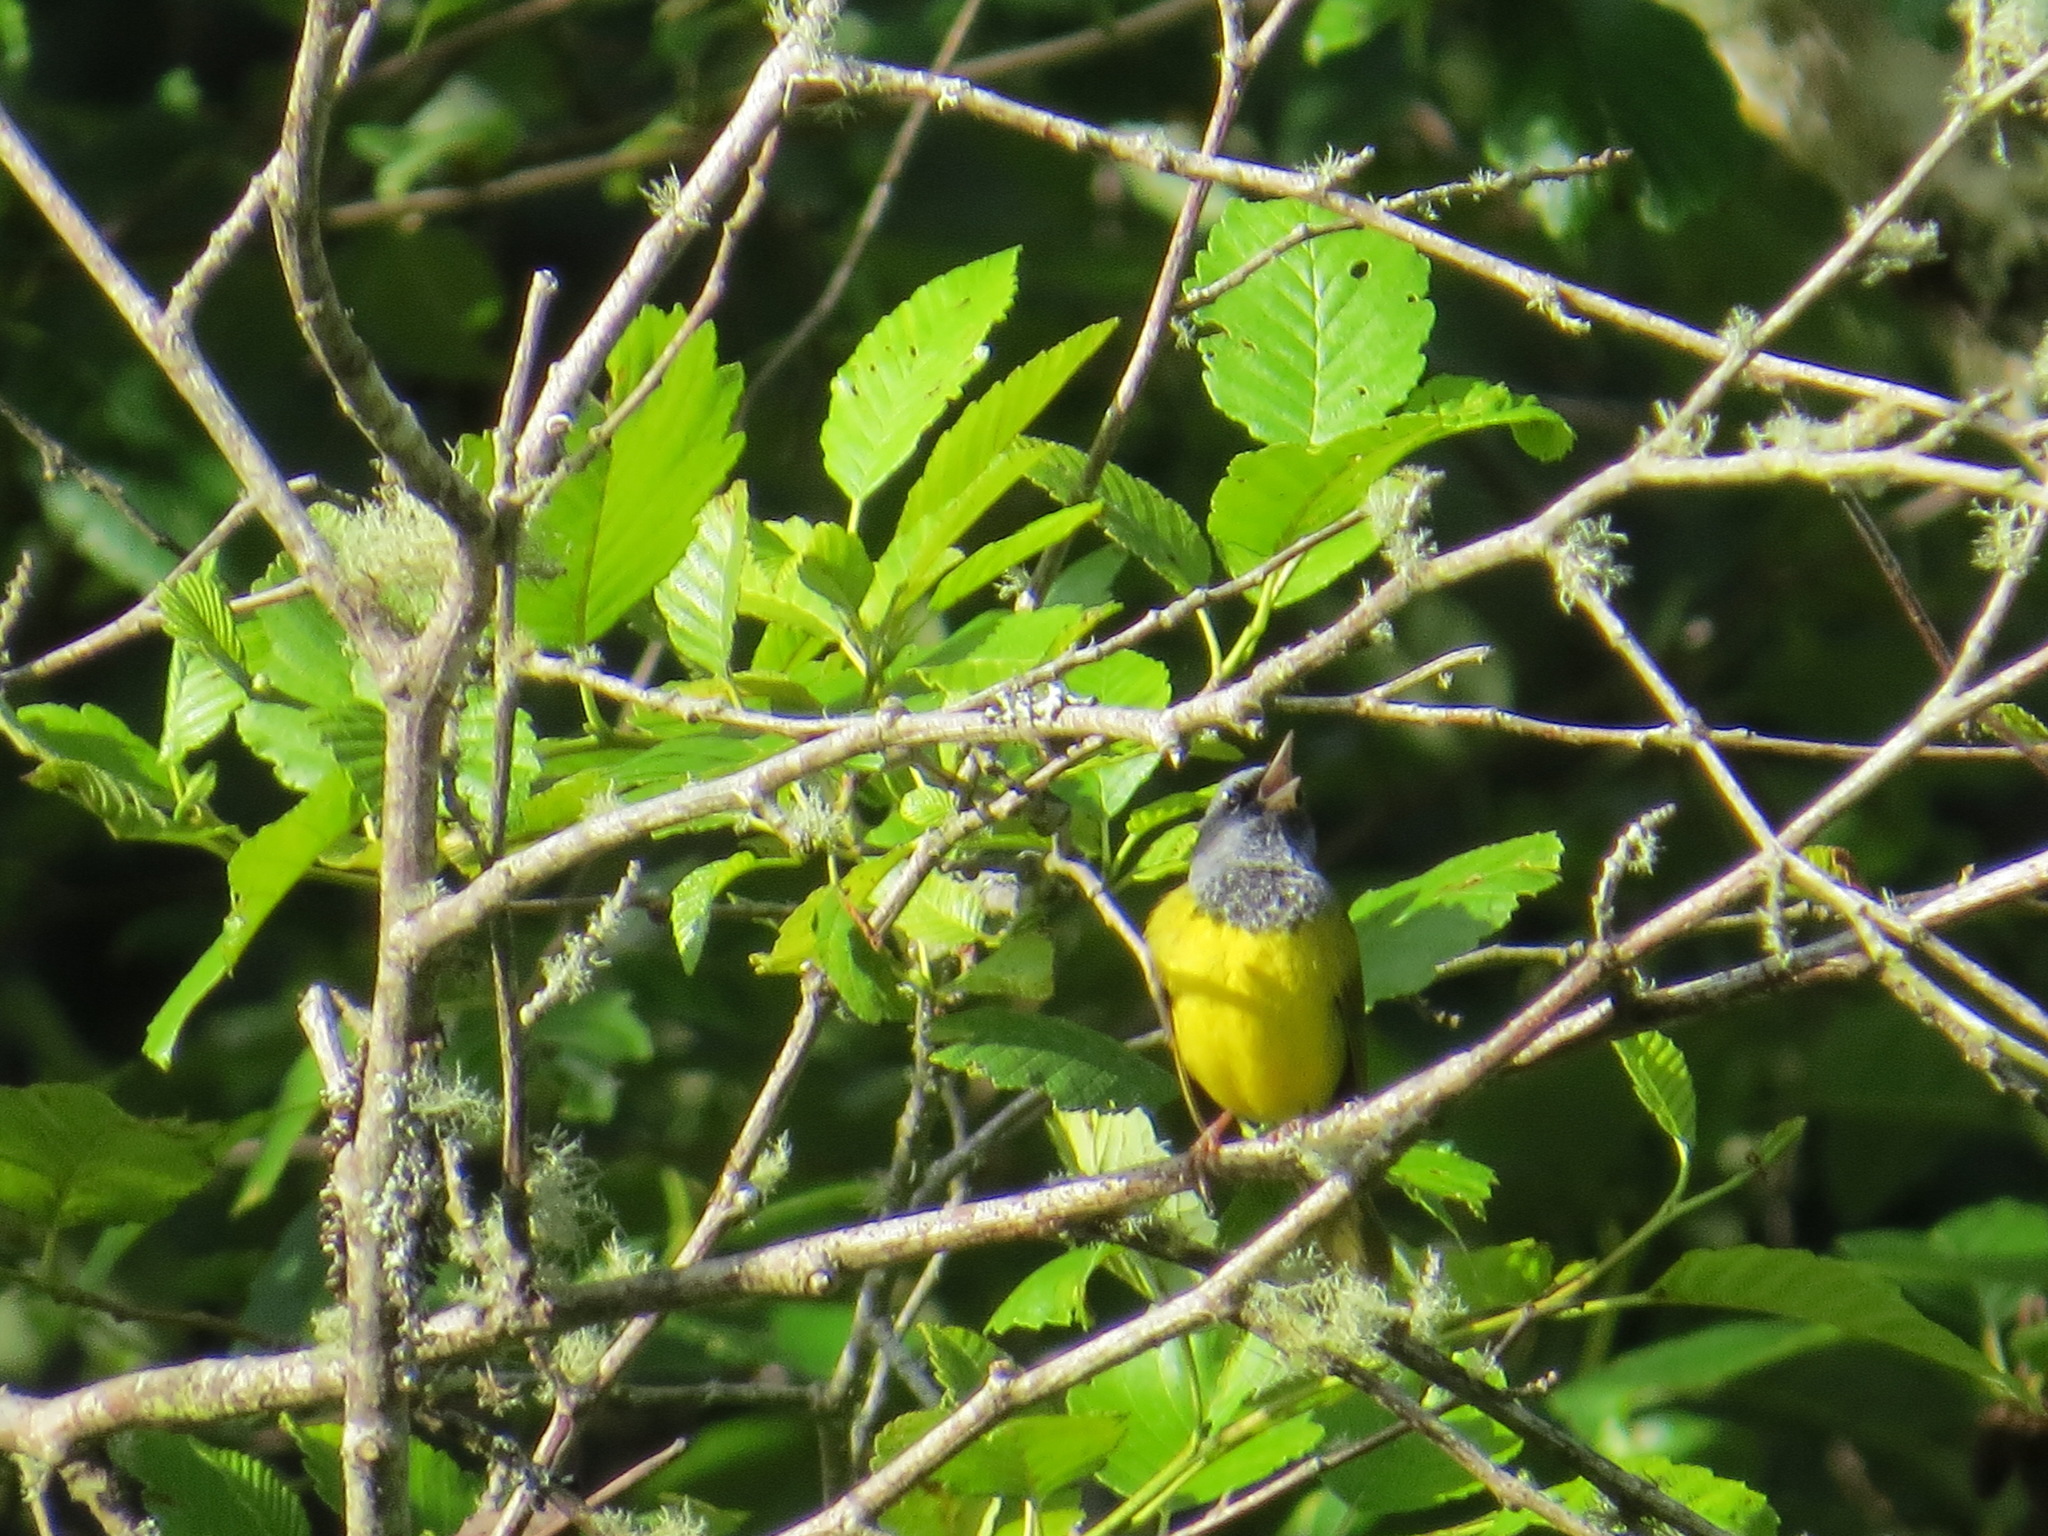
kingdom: Animalia
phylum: Chordata
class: Aves
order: Passeriformes
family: Parulidae
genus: Geothlypis
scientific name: Geothlypis tolmiei
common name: Macgillivray's warbler
